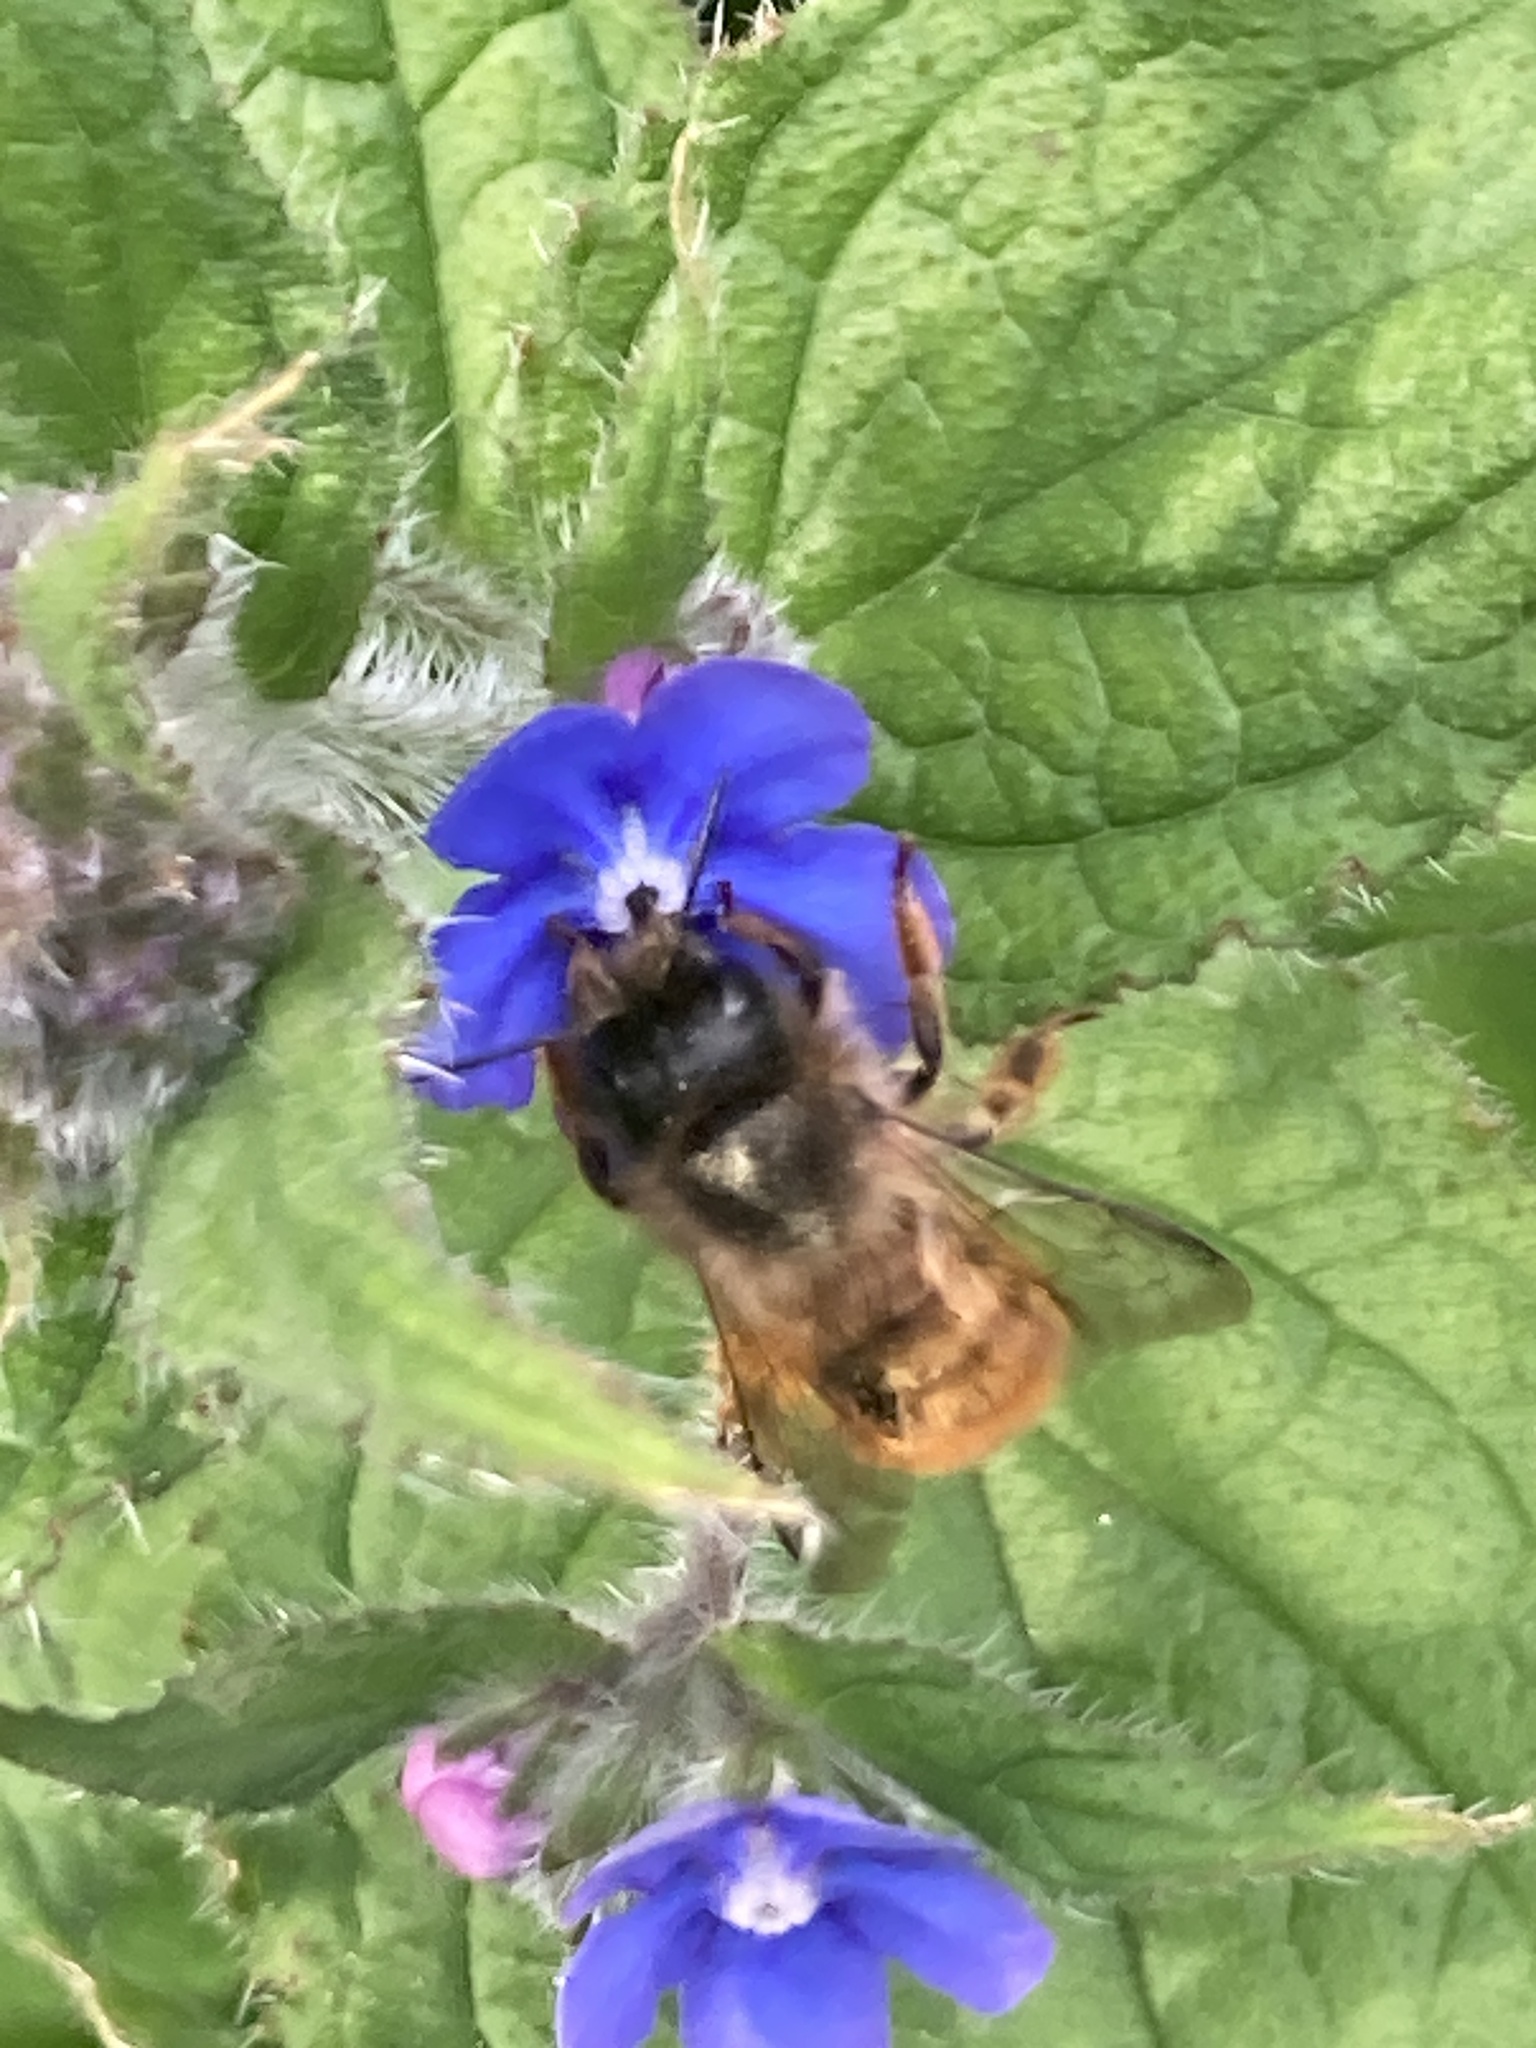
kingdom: Animalia
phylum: Arthropoda
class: Insecta
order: Hymenoptera
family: Megachilidae
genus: Osmia
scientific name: Osmia bicornis
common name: Red mason bee
